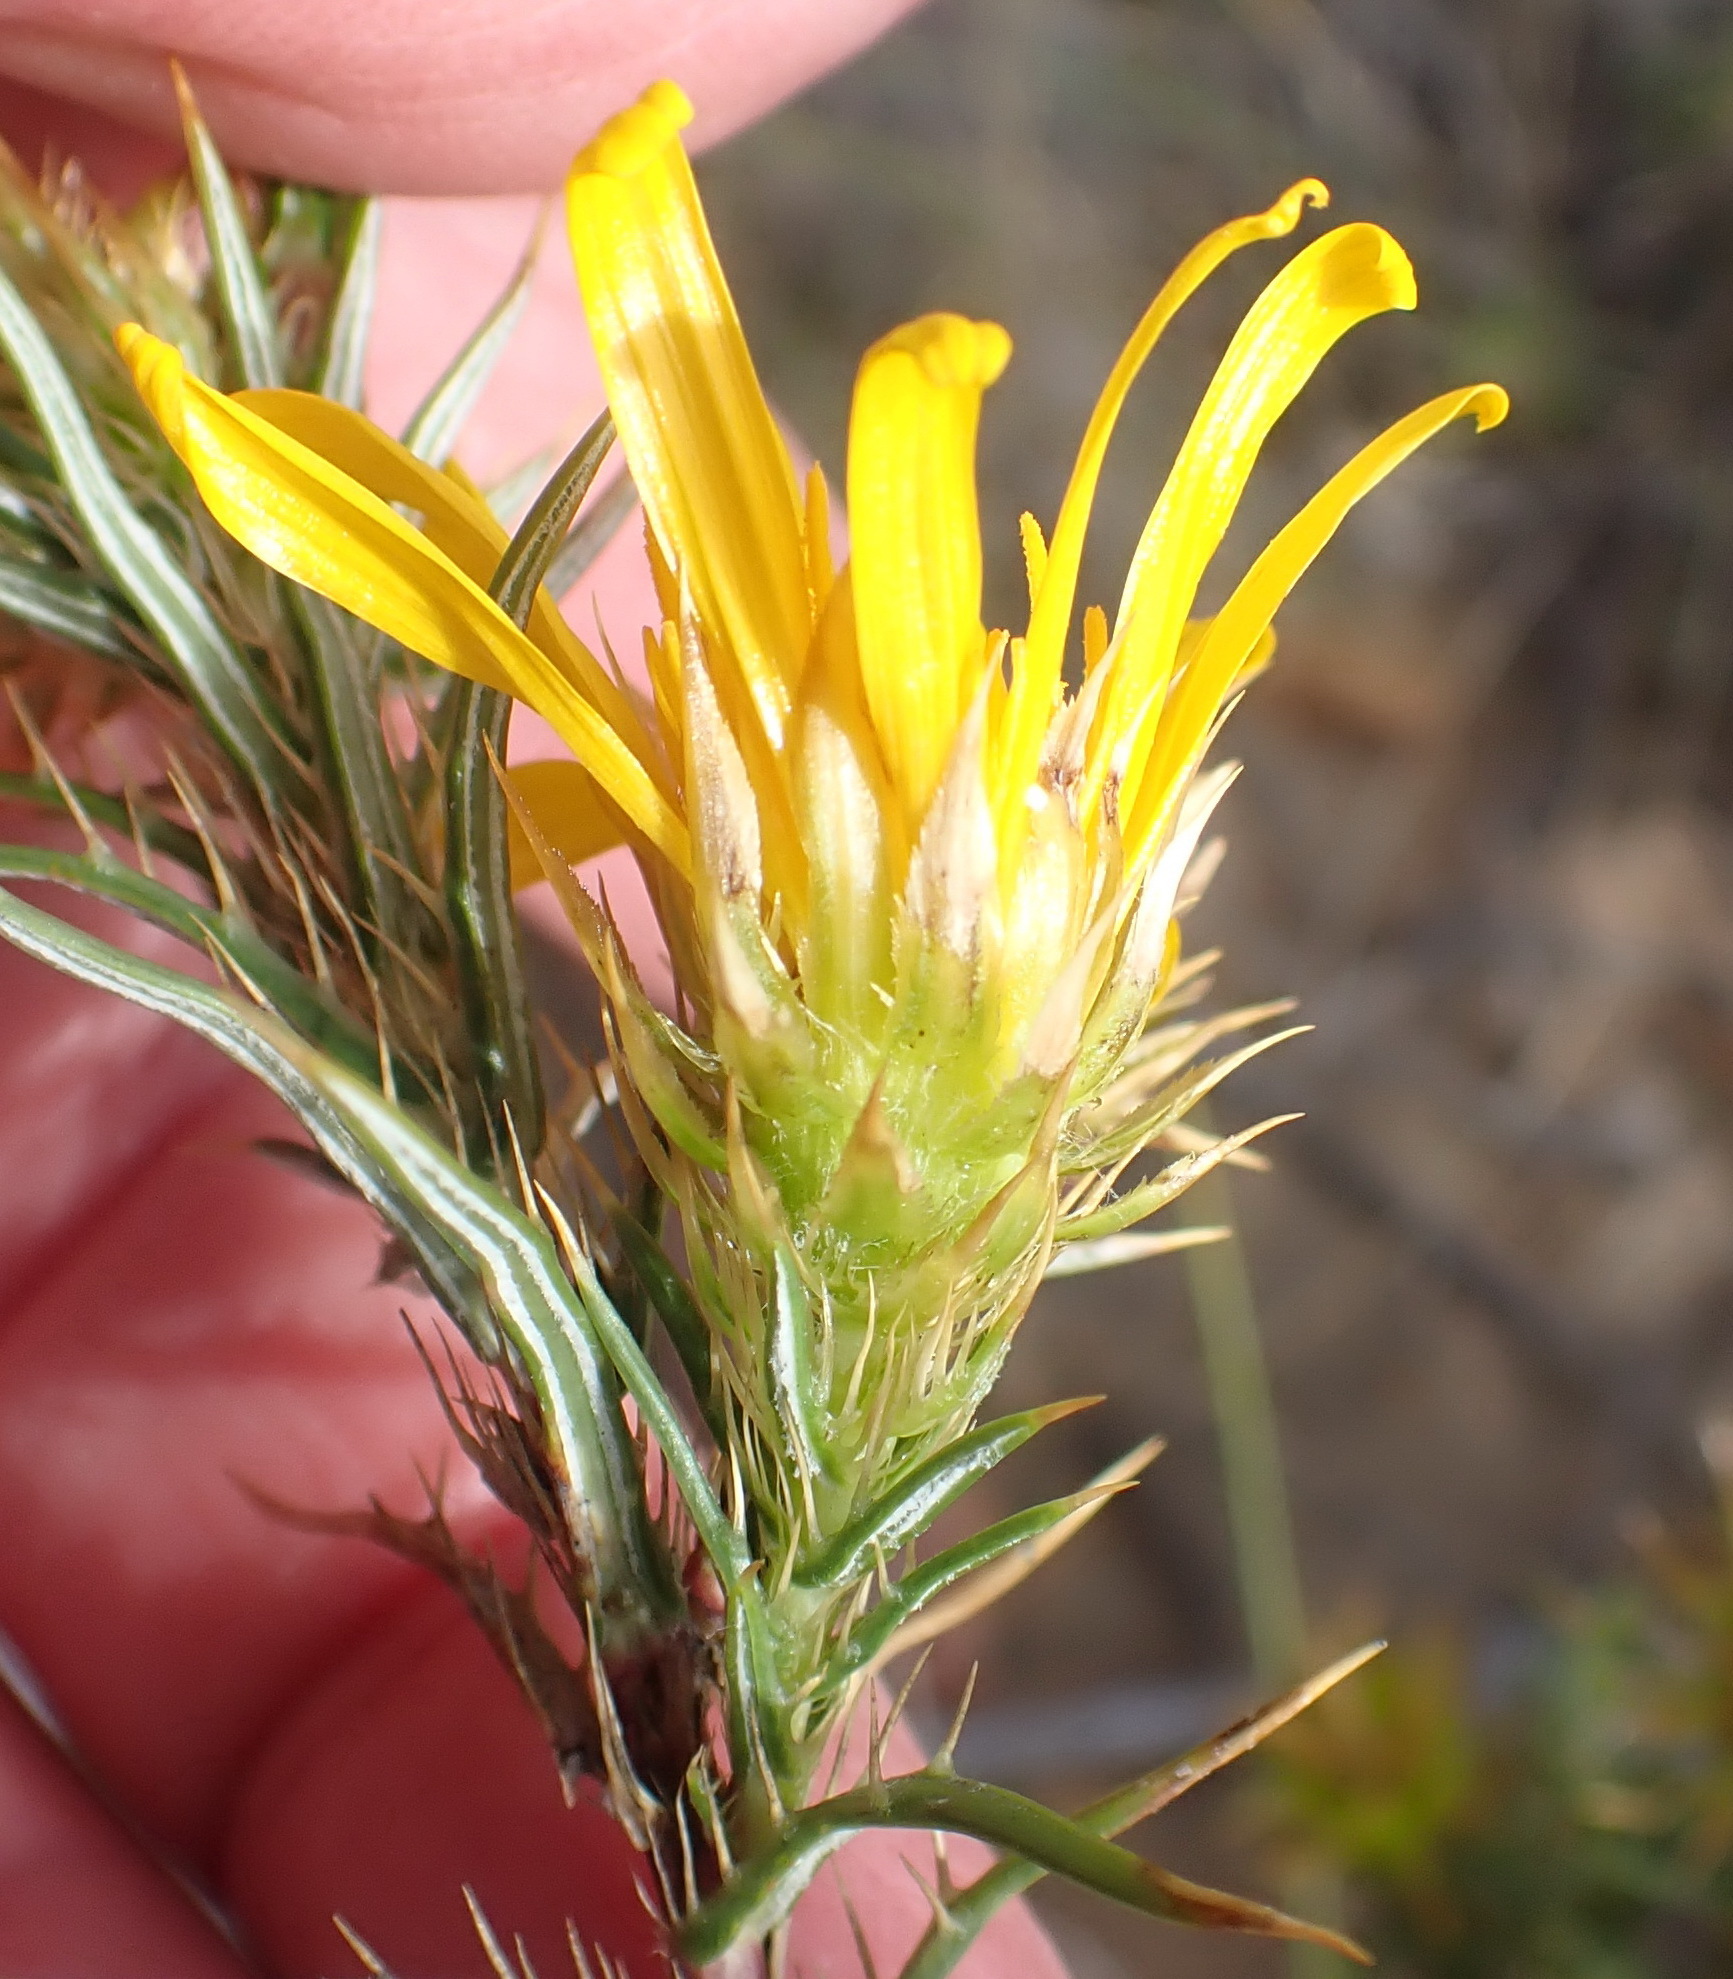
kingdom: Plantae
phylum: Tracheophyta
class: Magnoliopsida
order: Asterales
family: Asteraceae
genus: Cullumia
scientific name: Cullumia setosa
